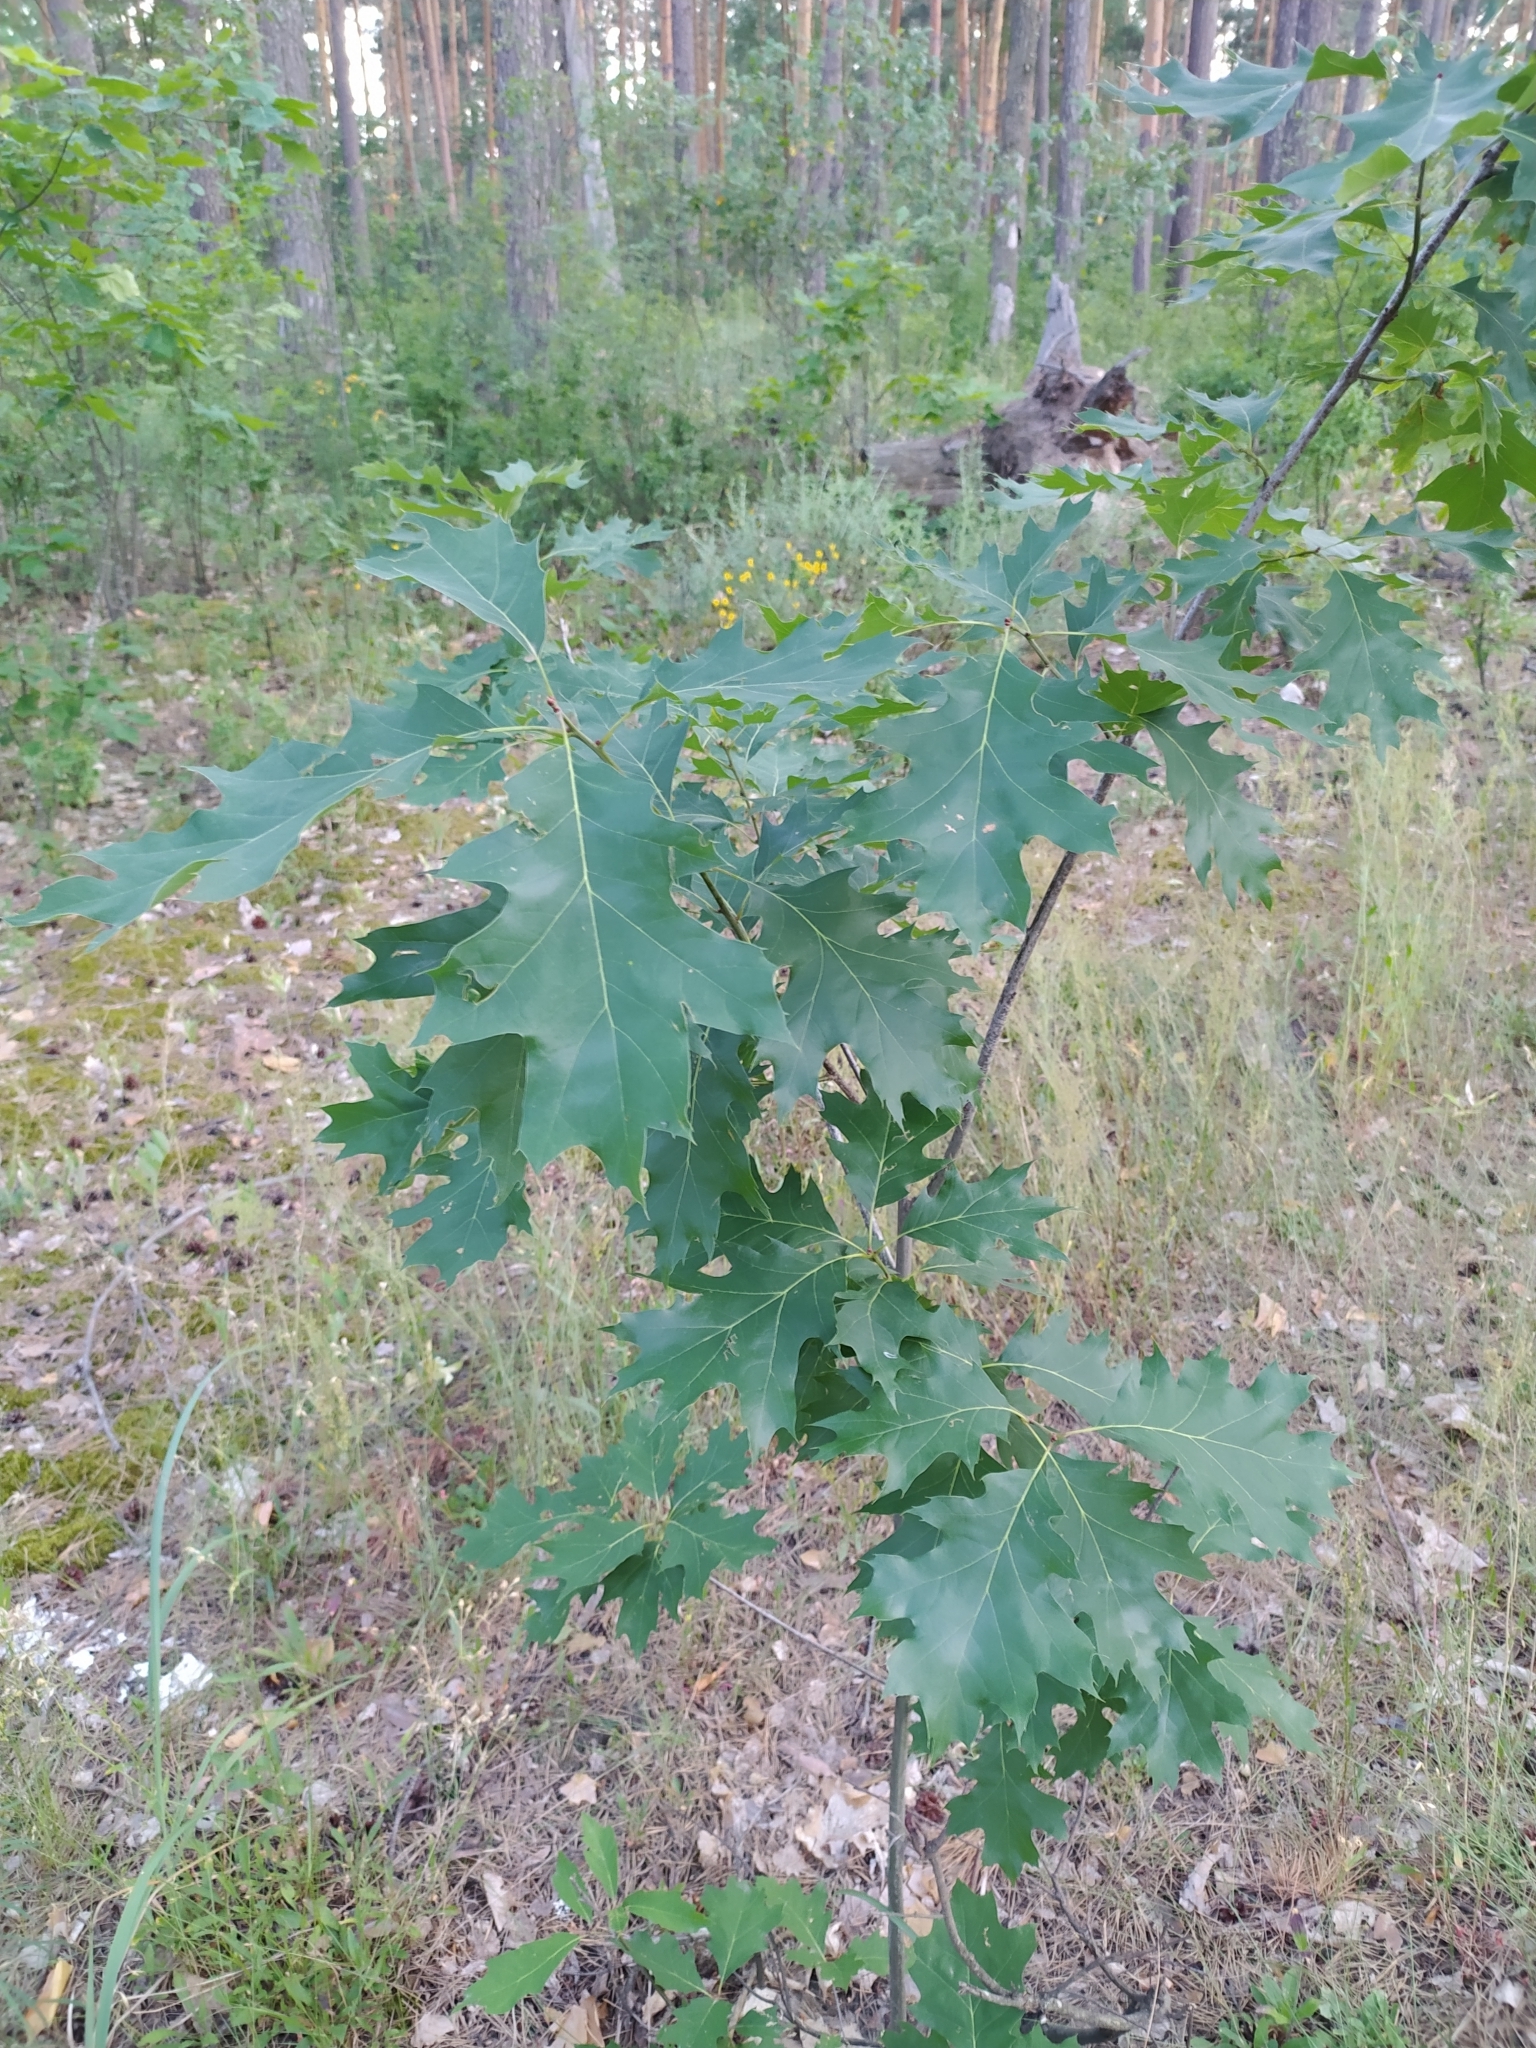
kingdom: Plantae
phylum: Tracheophyta
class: Magnoliopsida
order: Fagales
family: Fagaceae
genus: Quercus
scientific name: Quercus rubra
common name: Red oak
